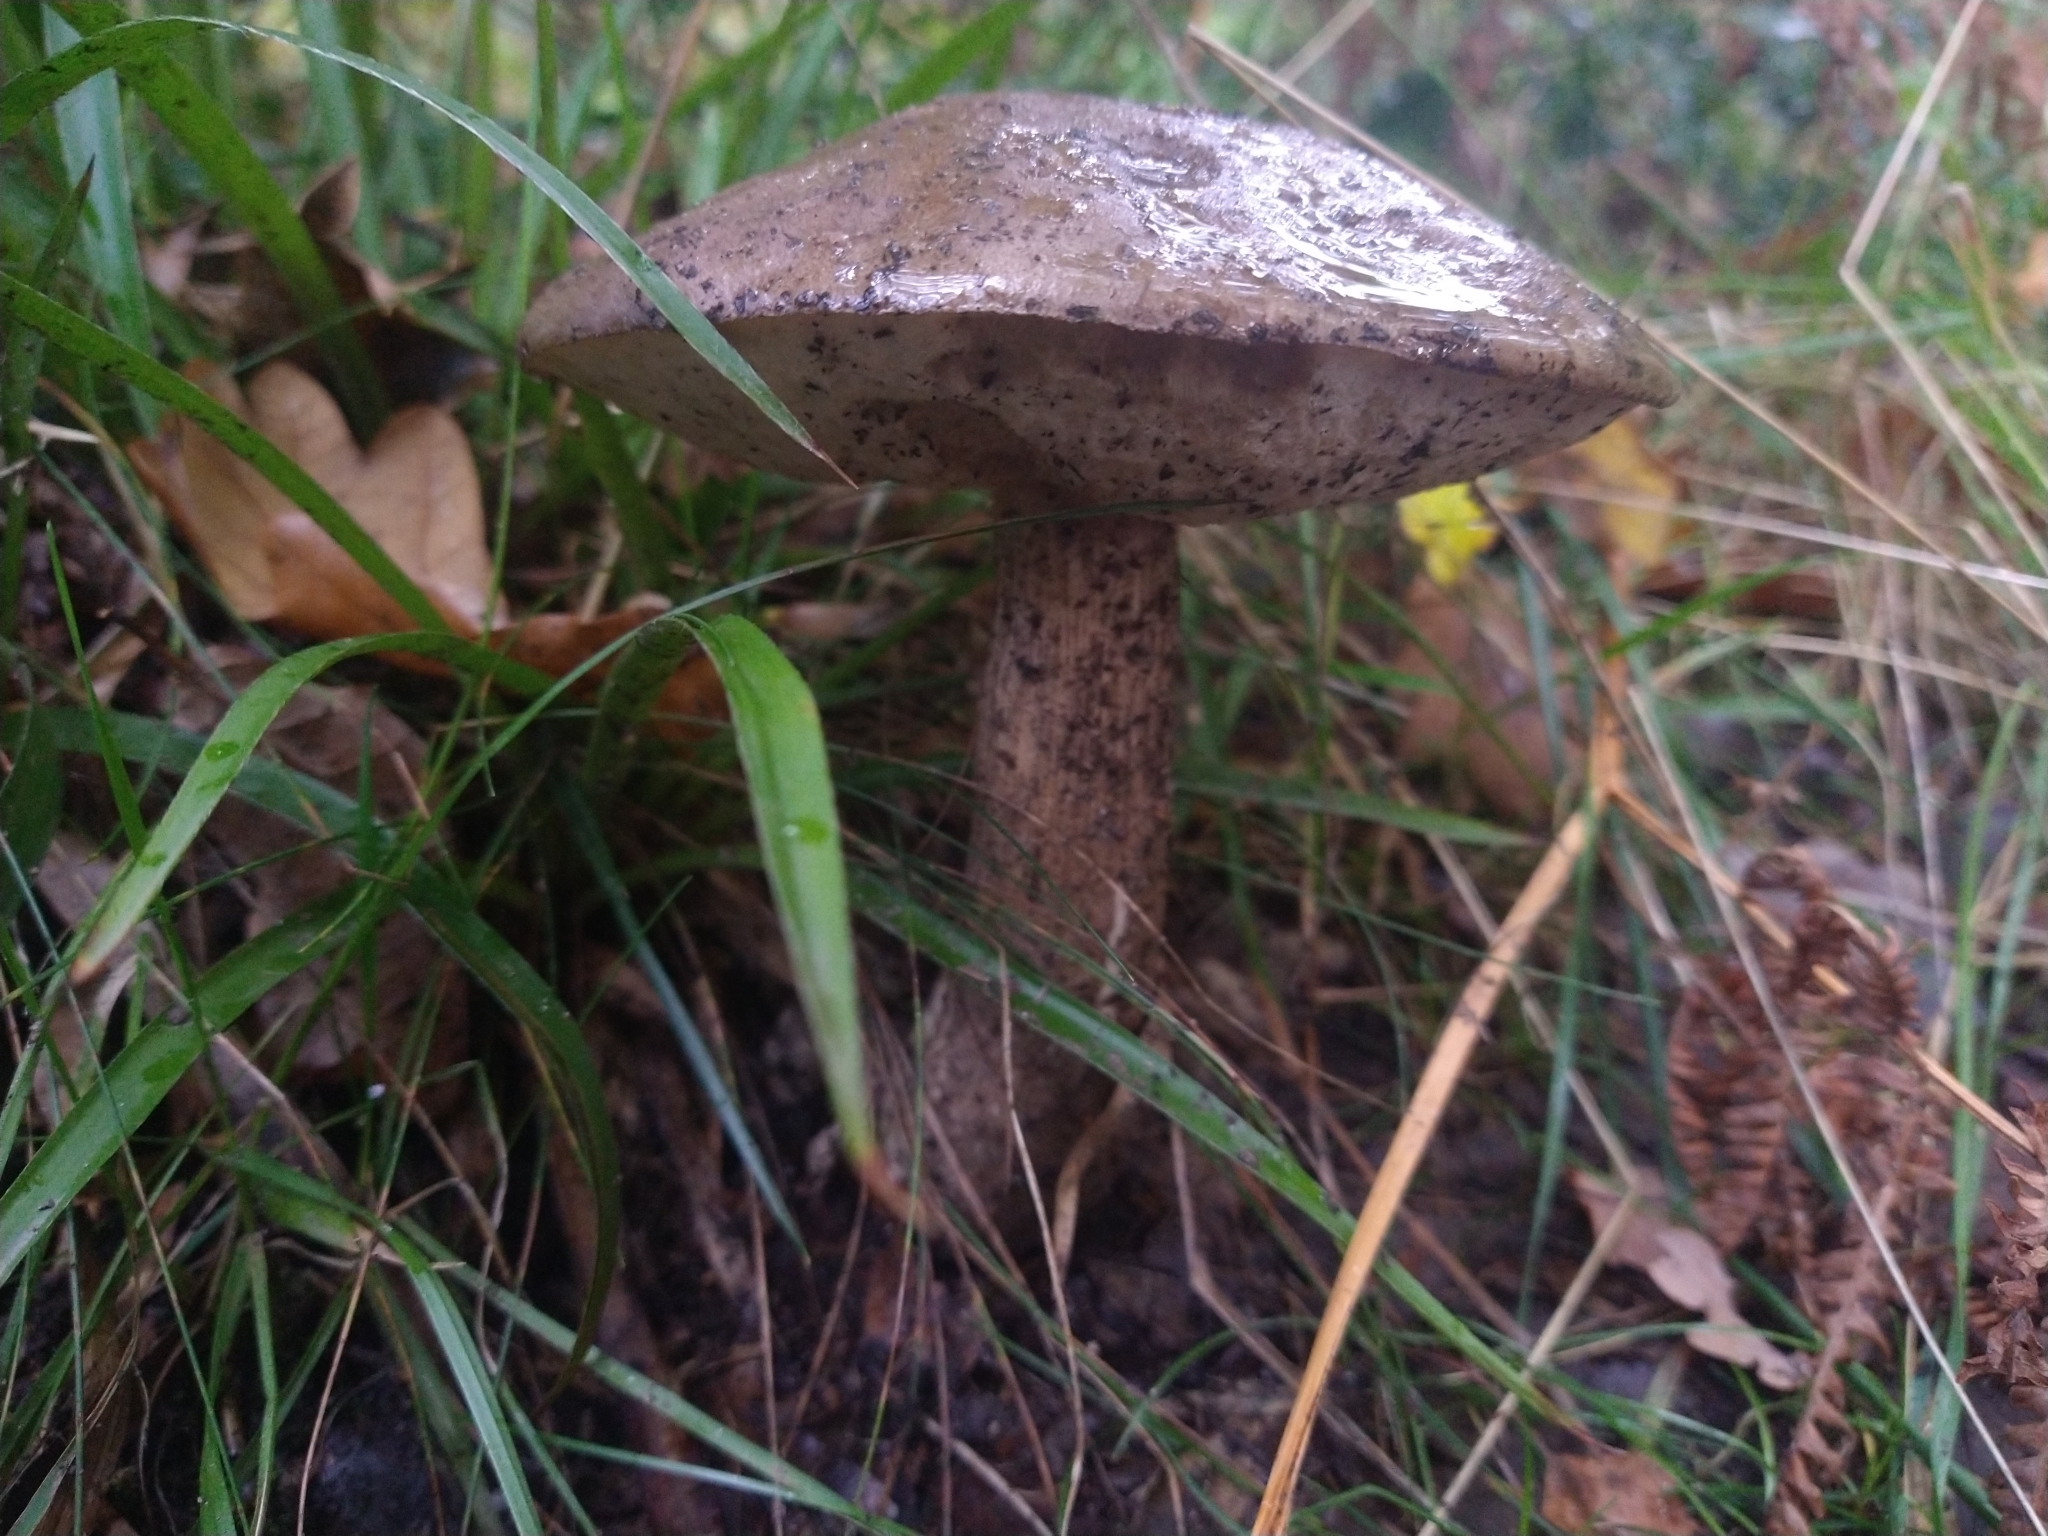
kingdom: Fungi
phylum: Basidiomycota
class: Agaricomycetes
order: Boletales
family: Boletaceae
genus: Leccinum
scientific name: Leccinum scabrum
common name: Blushing bolete
